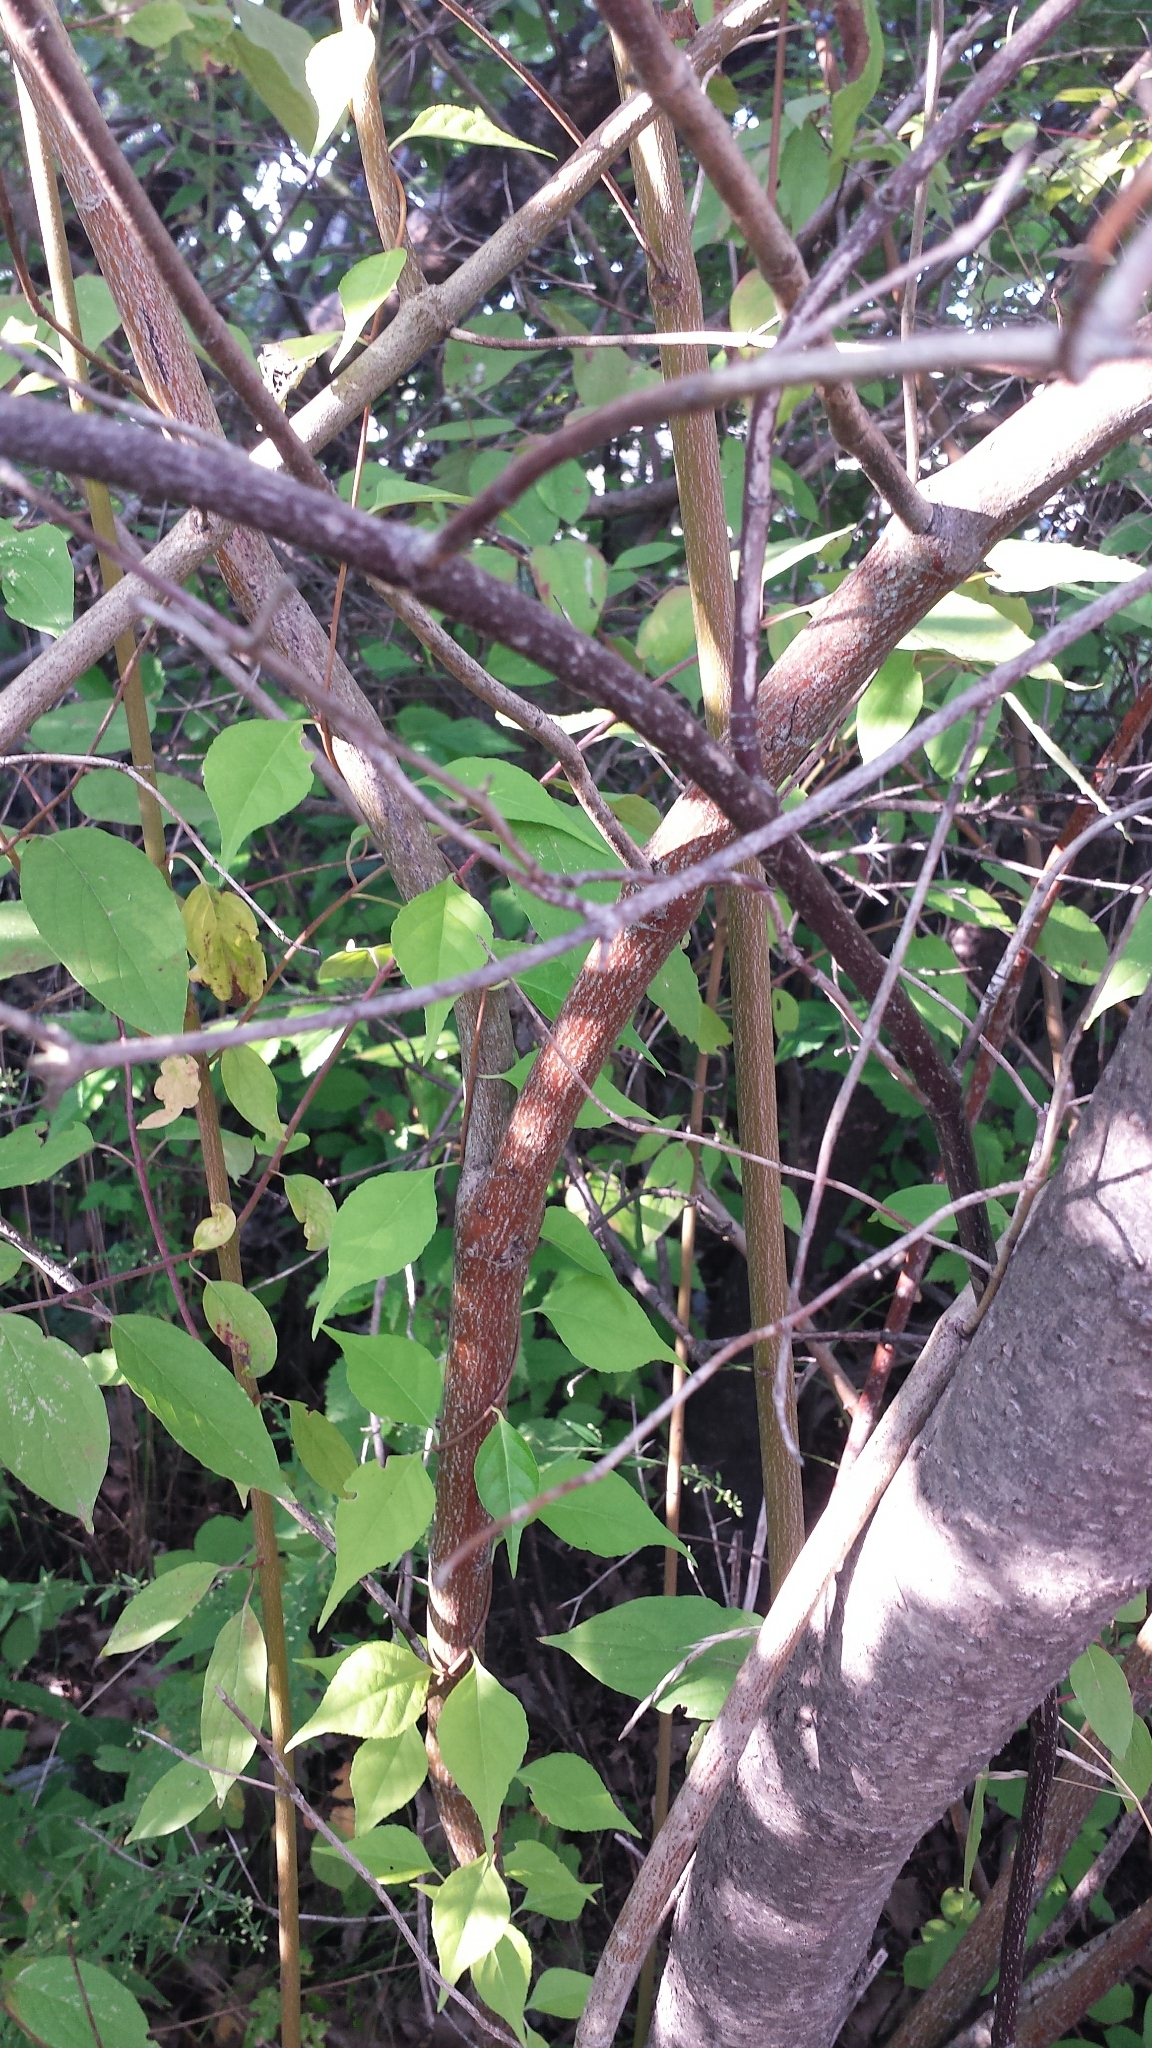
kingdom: Plantae
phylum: Tracheophyta
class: Magnoliopsida
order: Cornales
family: Cornaceae
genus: Cornus
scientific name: Cornus amomum
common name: Silky dogwood
